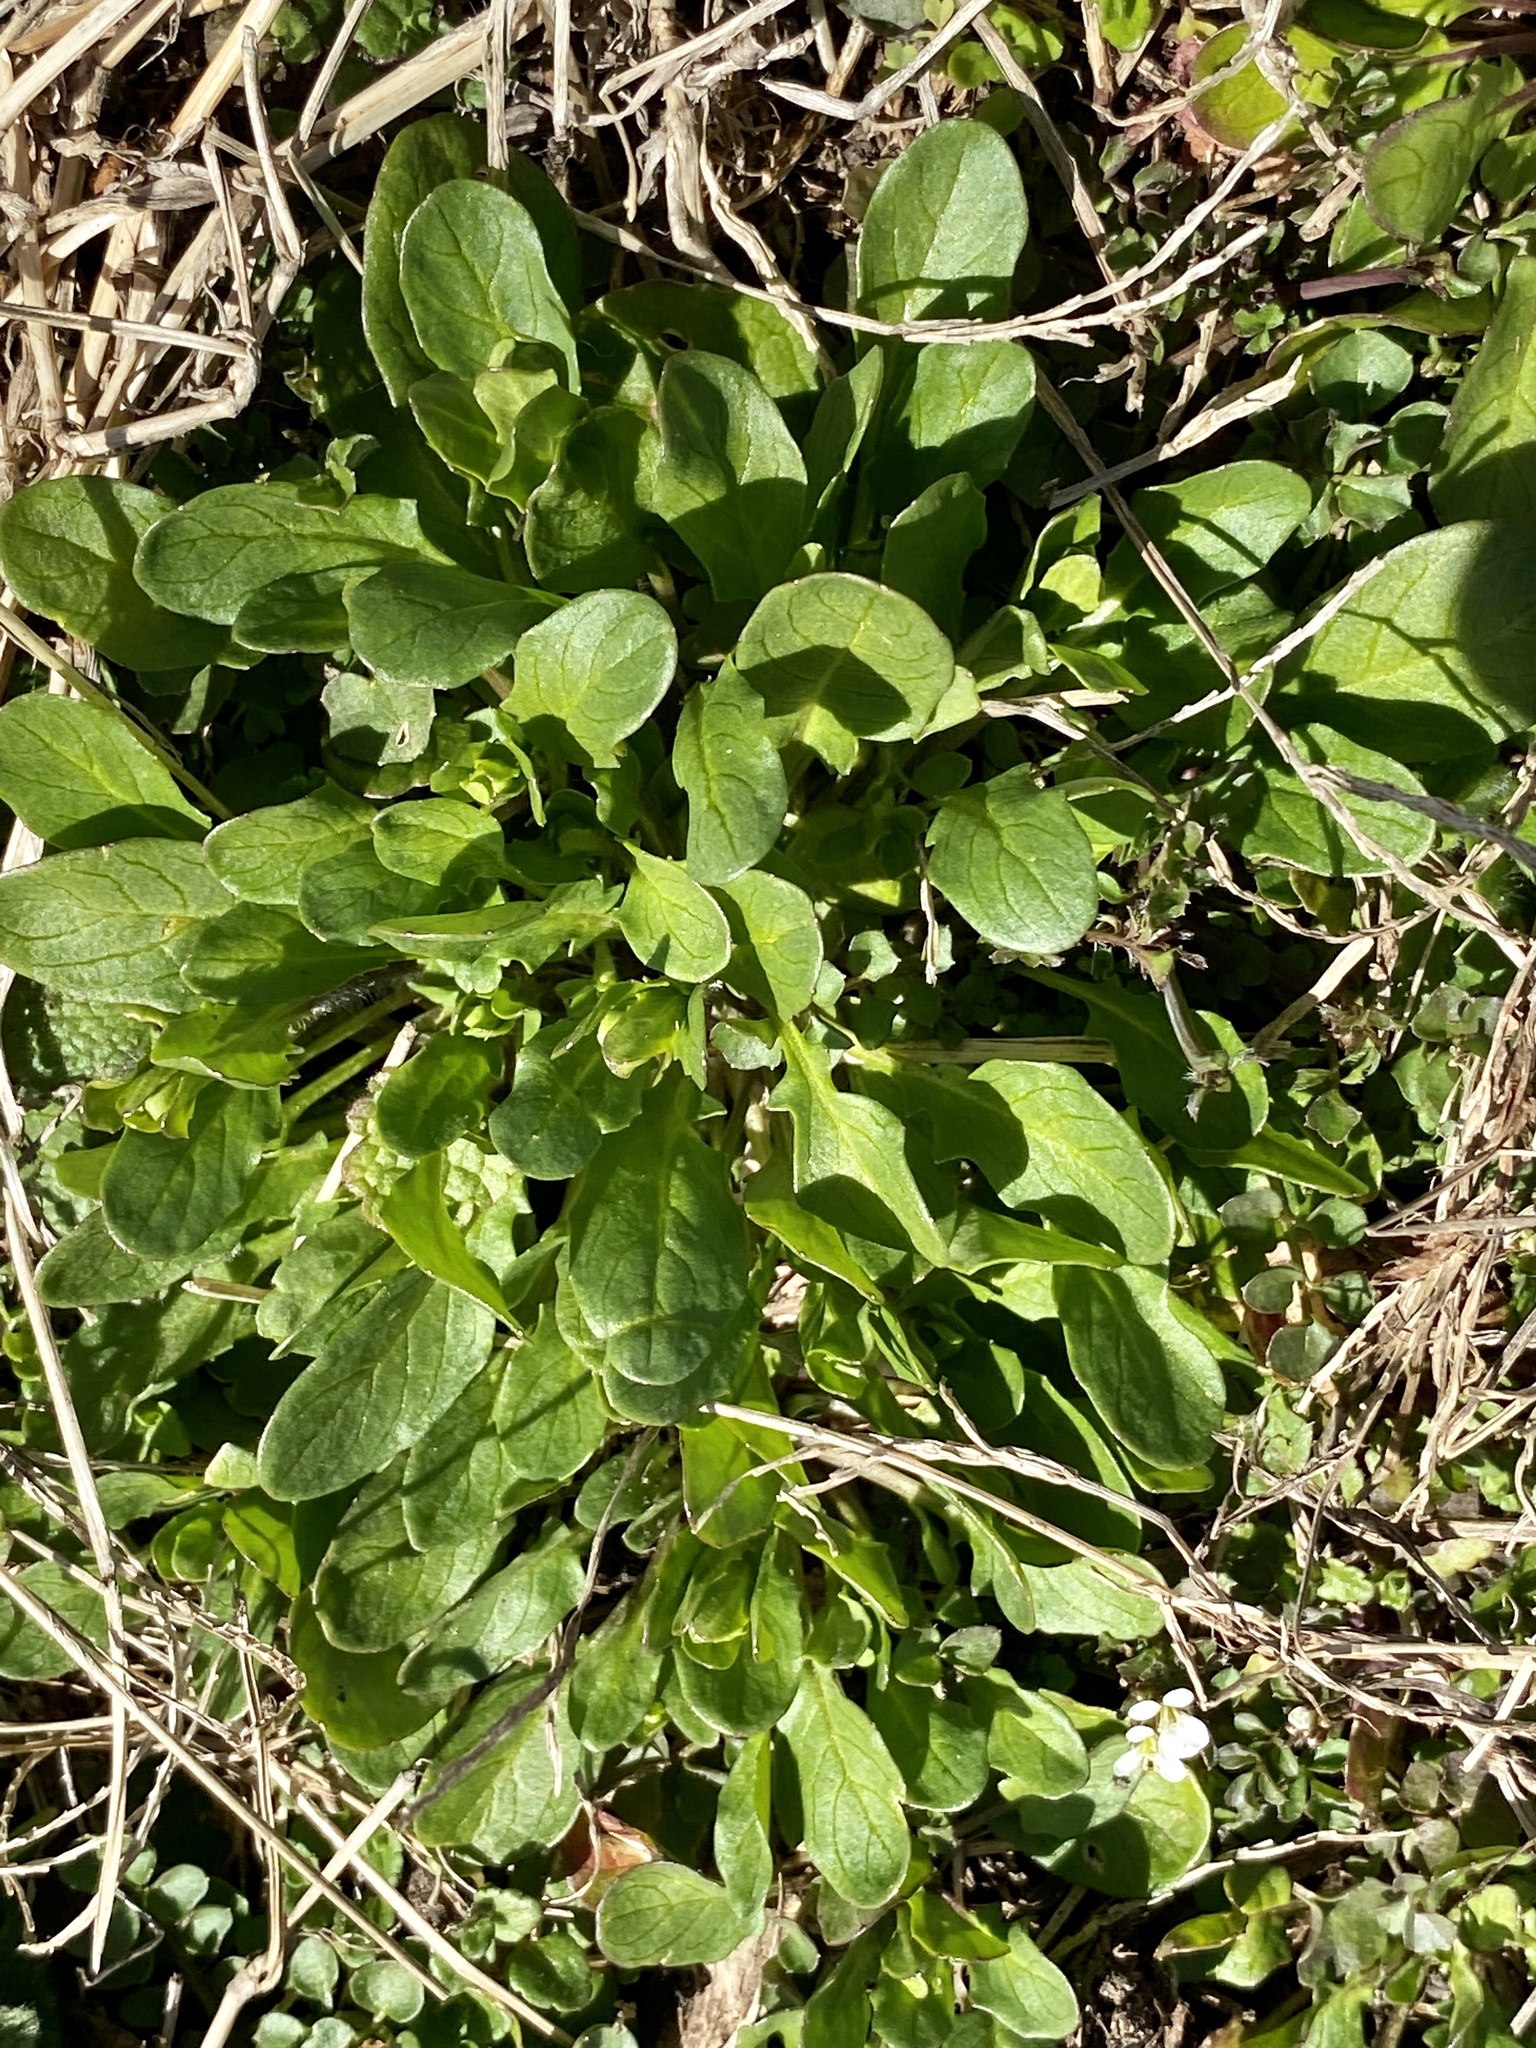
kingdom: Plantae
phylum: Tracheophyta
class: Magnoliopsida
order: Brassicales
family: Brassicaceae
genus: Mummenhoffia
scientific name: Mummenhoffia alliacea
